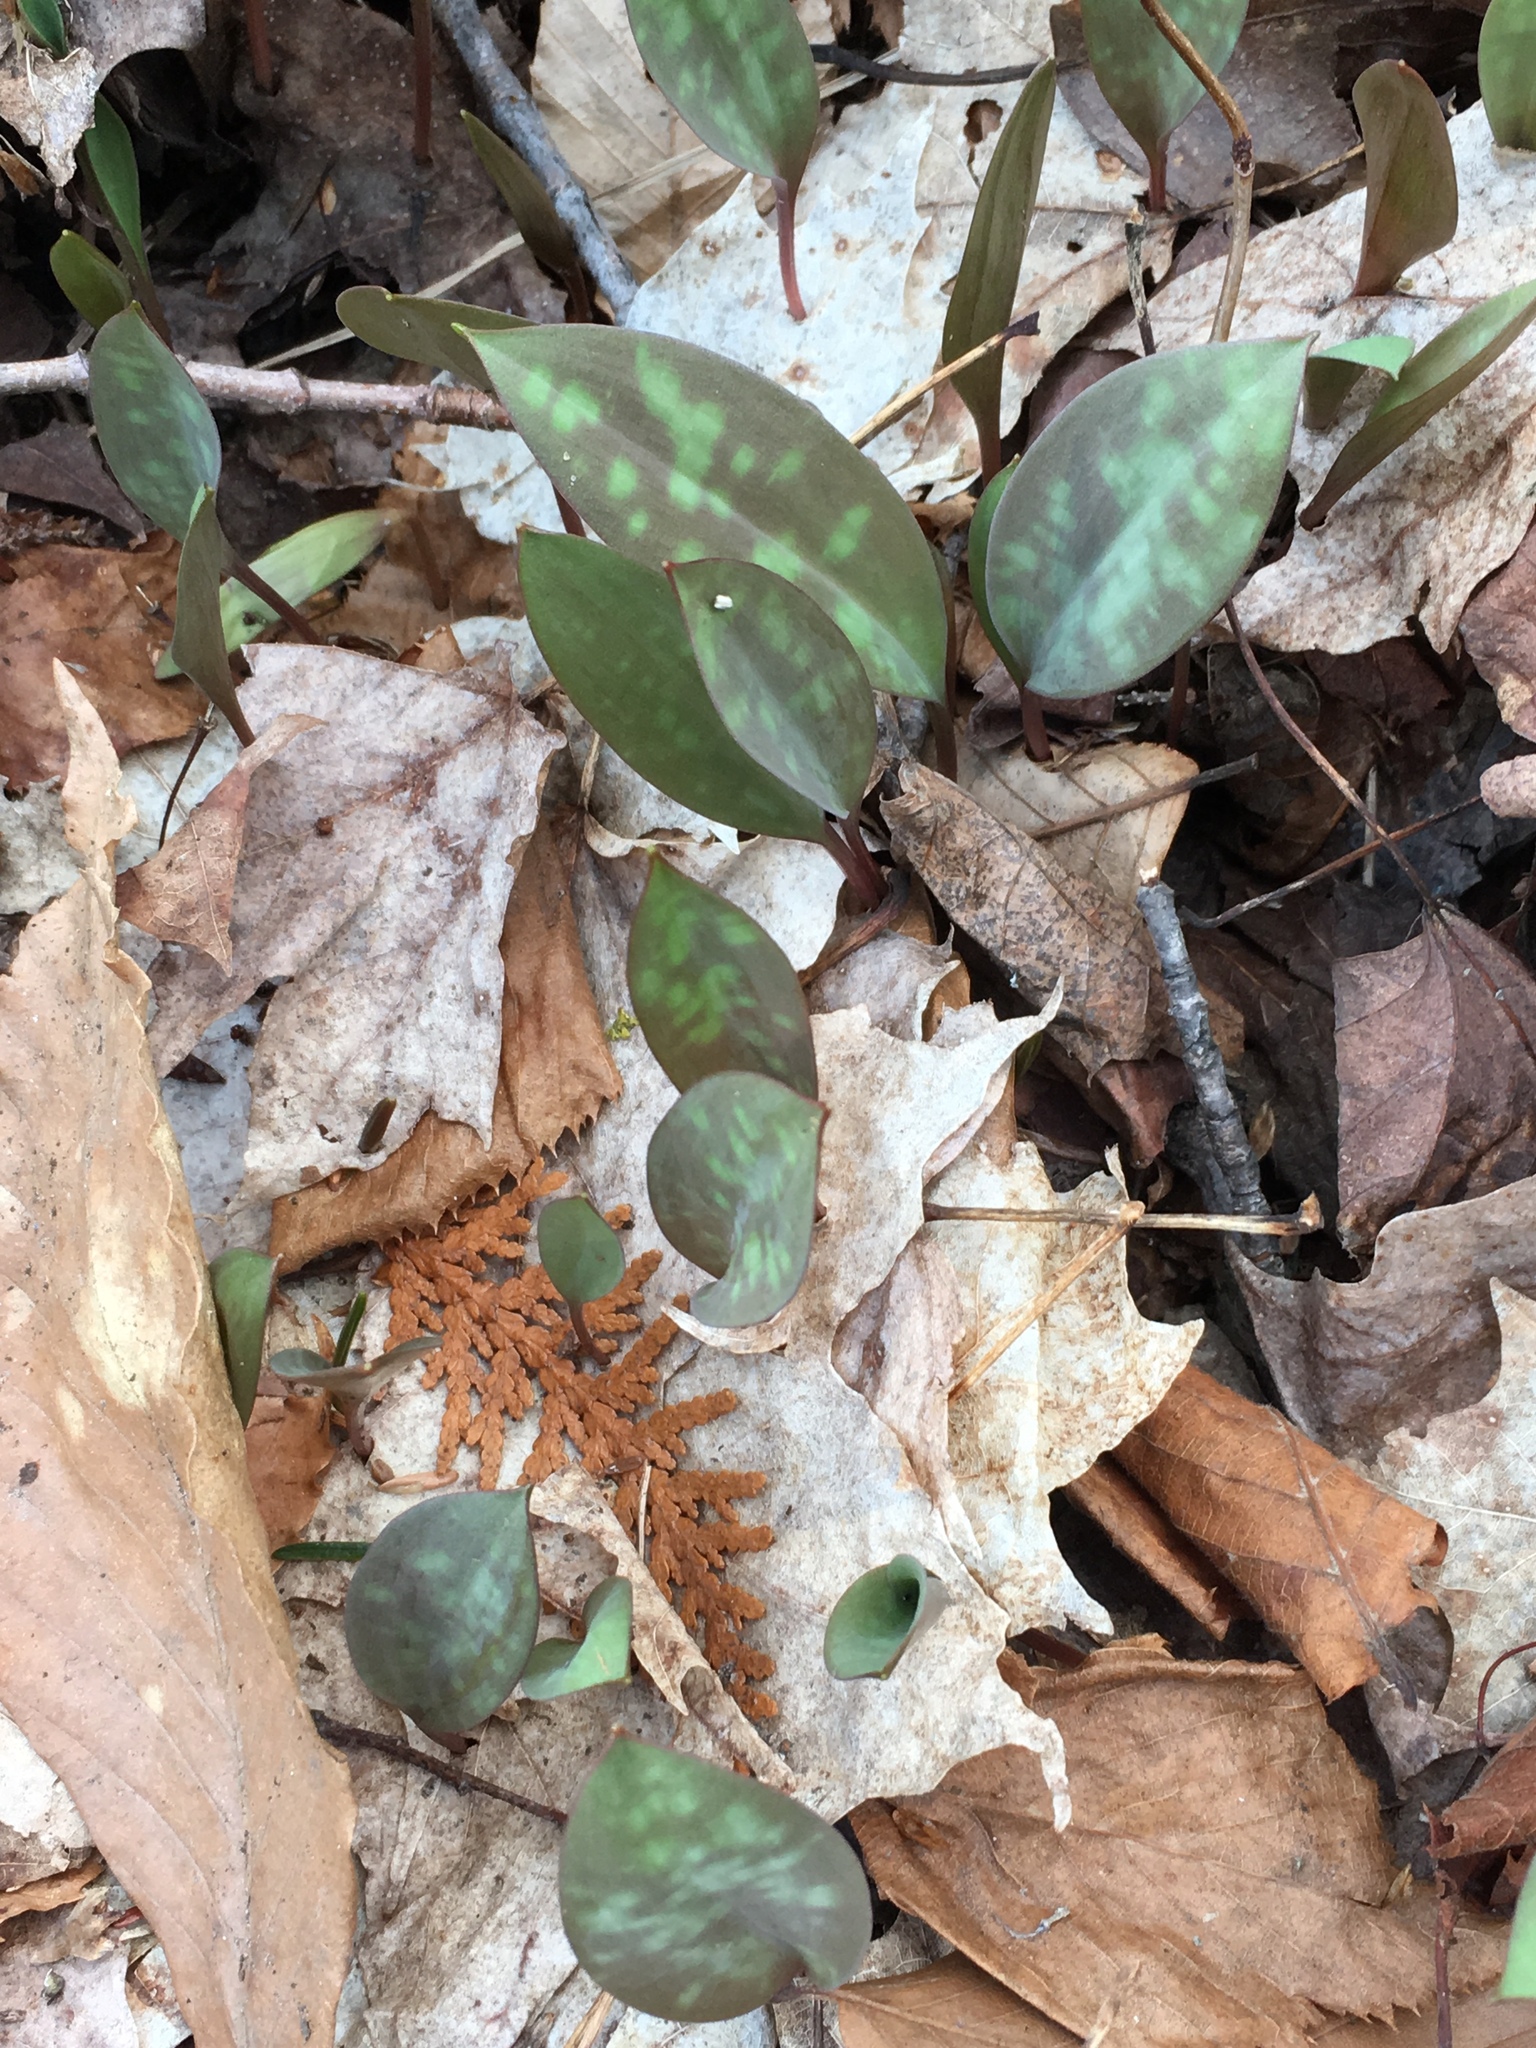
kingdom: Plantae
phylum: Tracheophyta
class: Liliopsida
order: Liliales
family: Liliaceae
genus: Erythronium
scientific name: Erythronium americanum
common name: Yellow adder's-tongue
